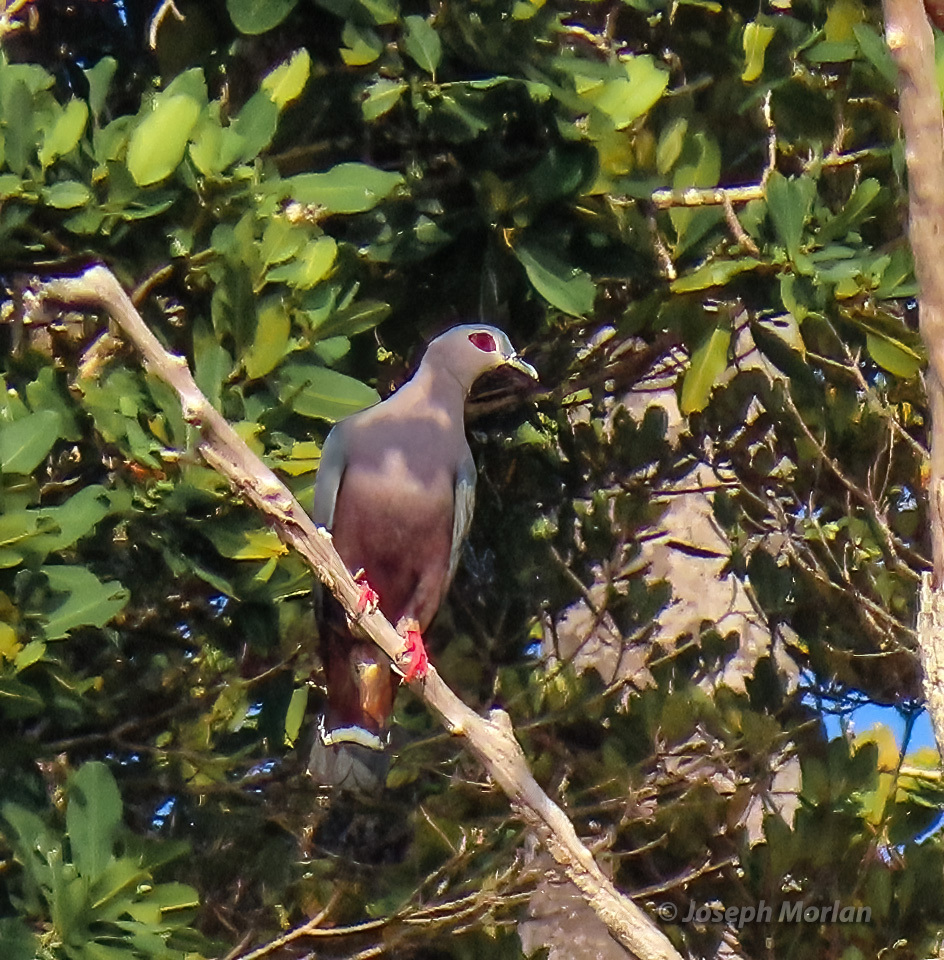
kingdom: Animalia
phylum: Chordata
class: Aves
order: Columbiformes
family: Columbidae
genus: Ducula
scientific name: Ducula pinon
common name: Pinon's imperial pigeon
